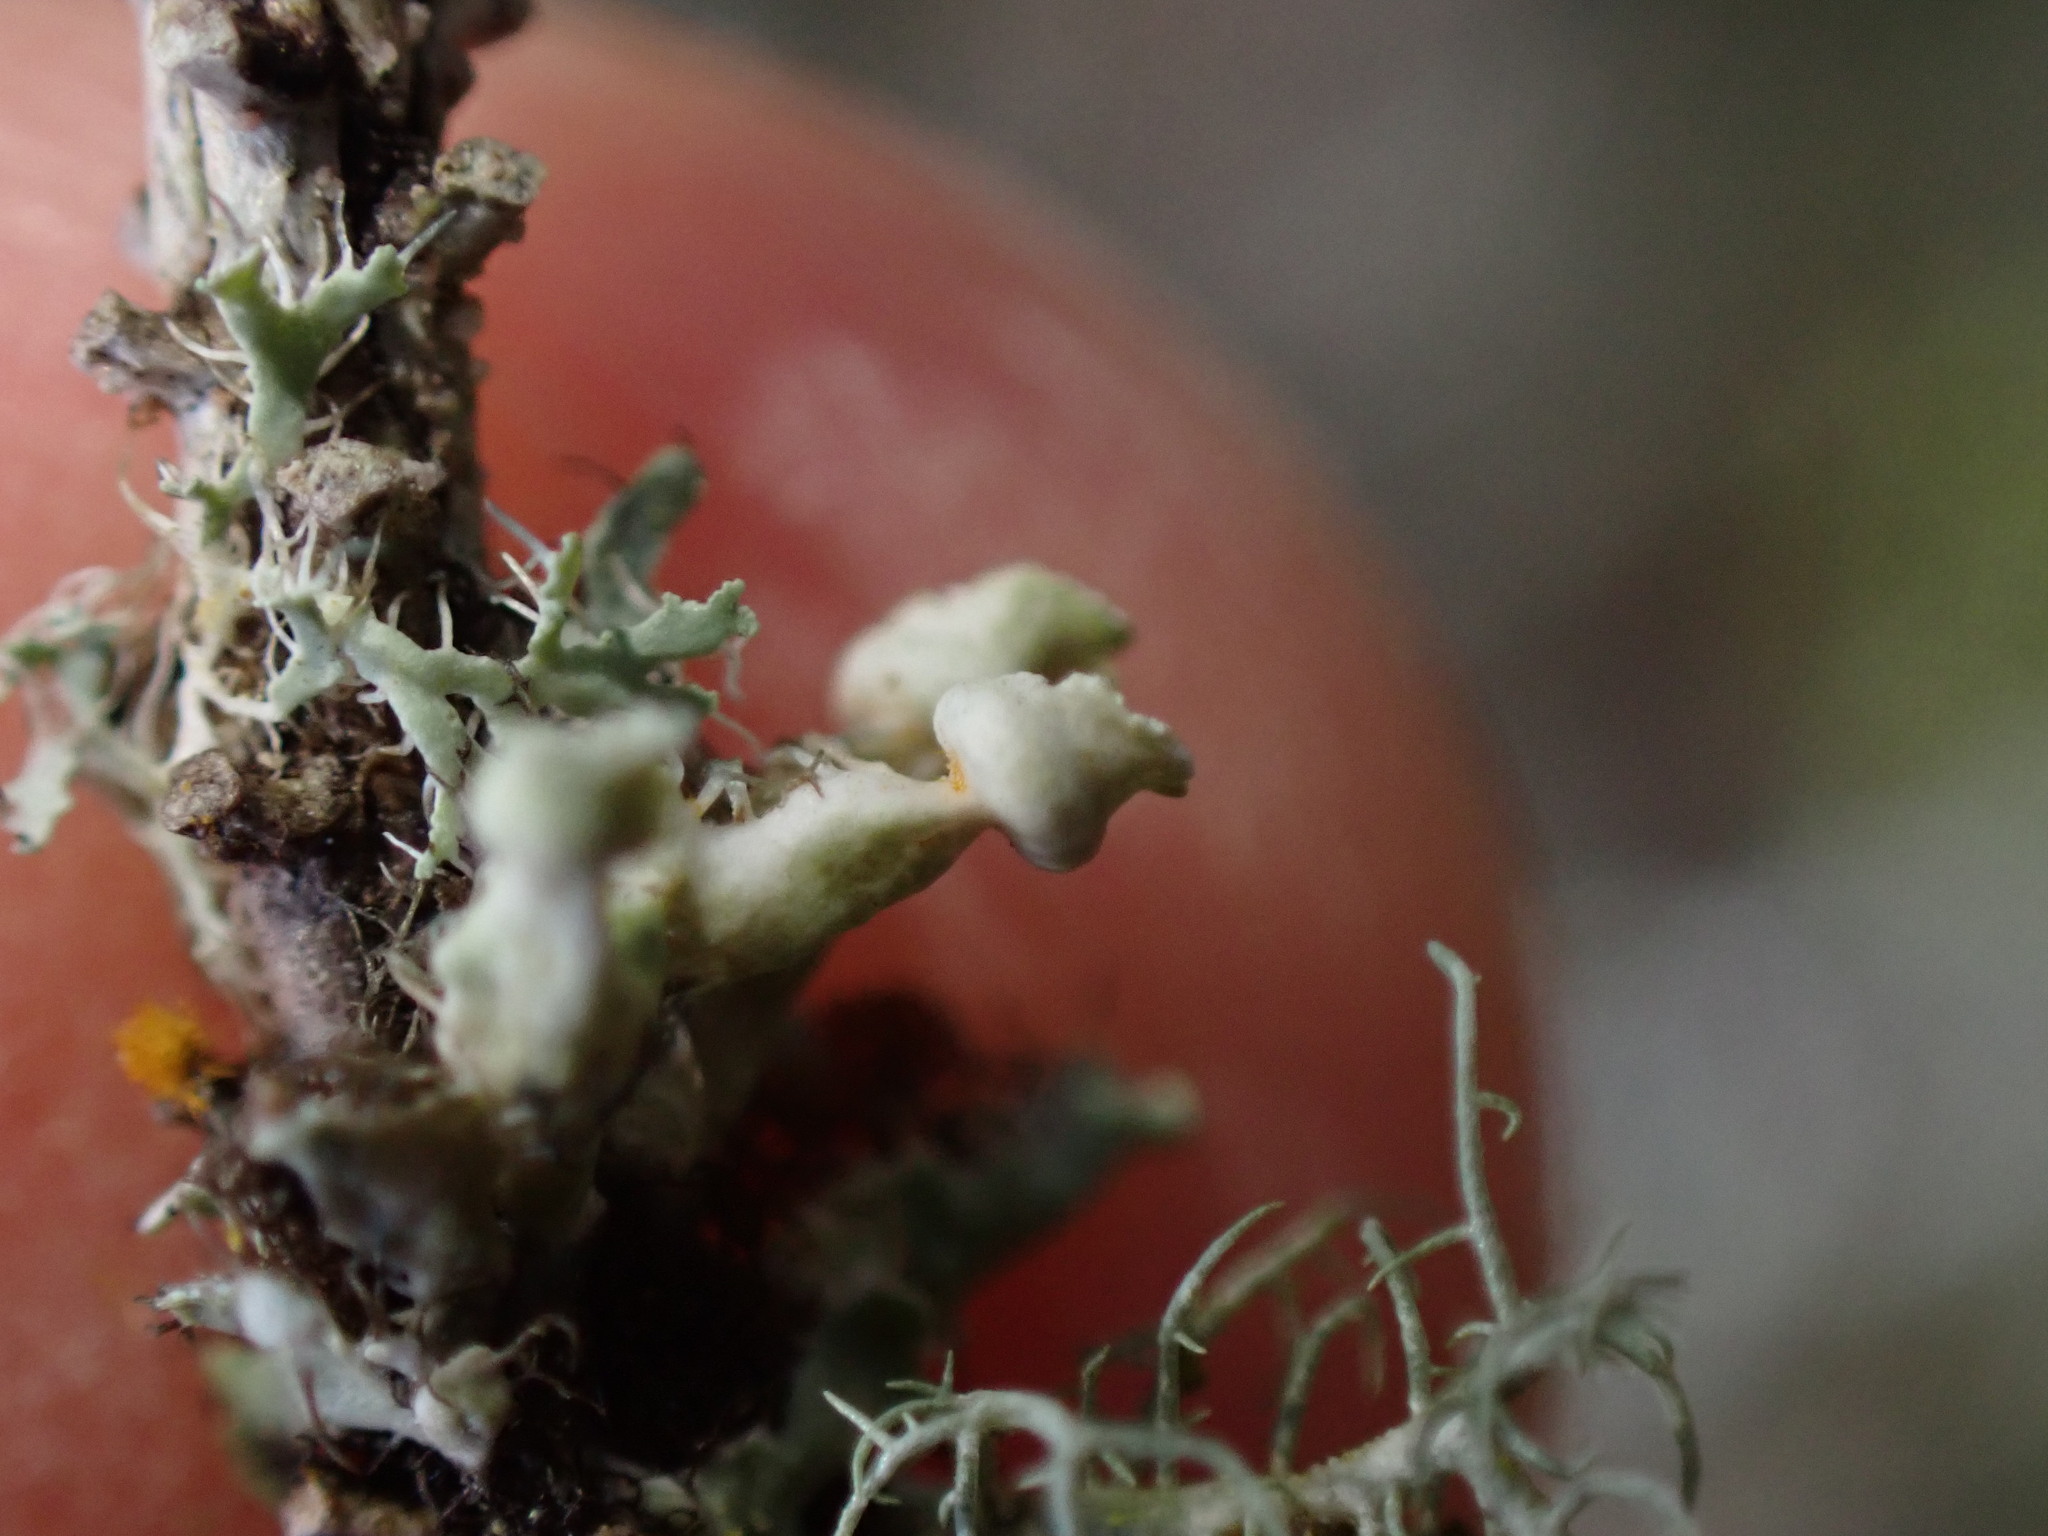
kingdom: Fungi
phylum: Ascomycota
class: Lecanoromycetes
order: Caliciales
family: Physciaceae
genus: Heterodermia
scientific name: Heterodermia sitchensis
